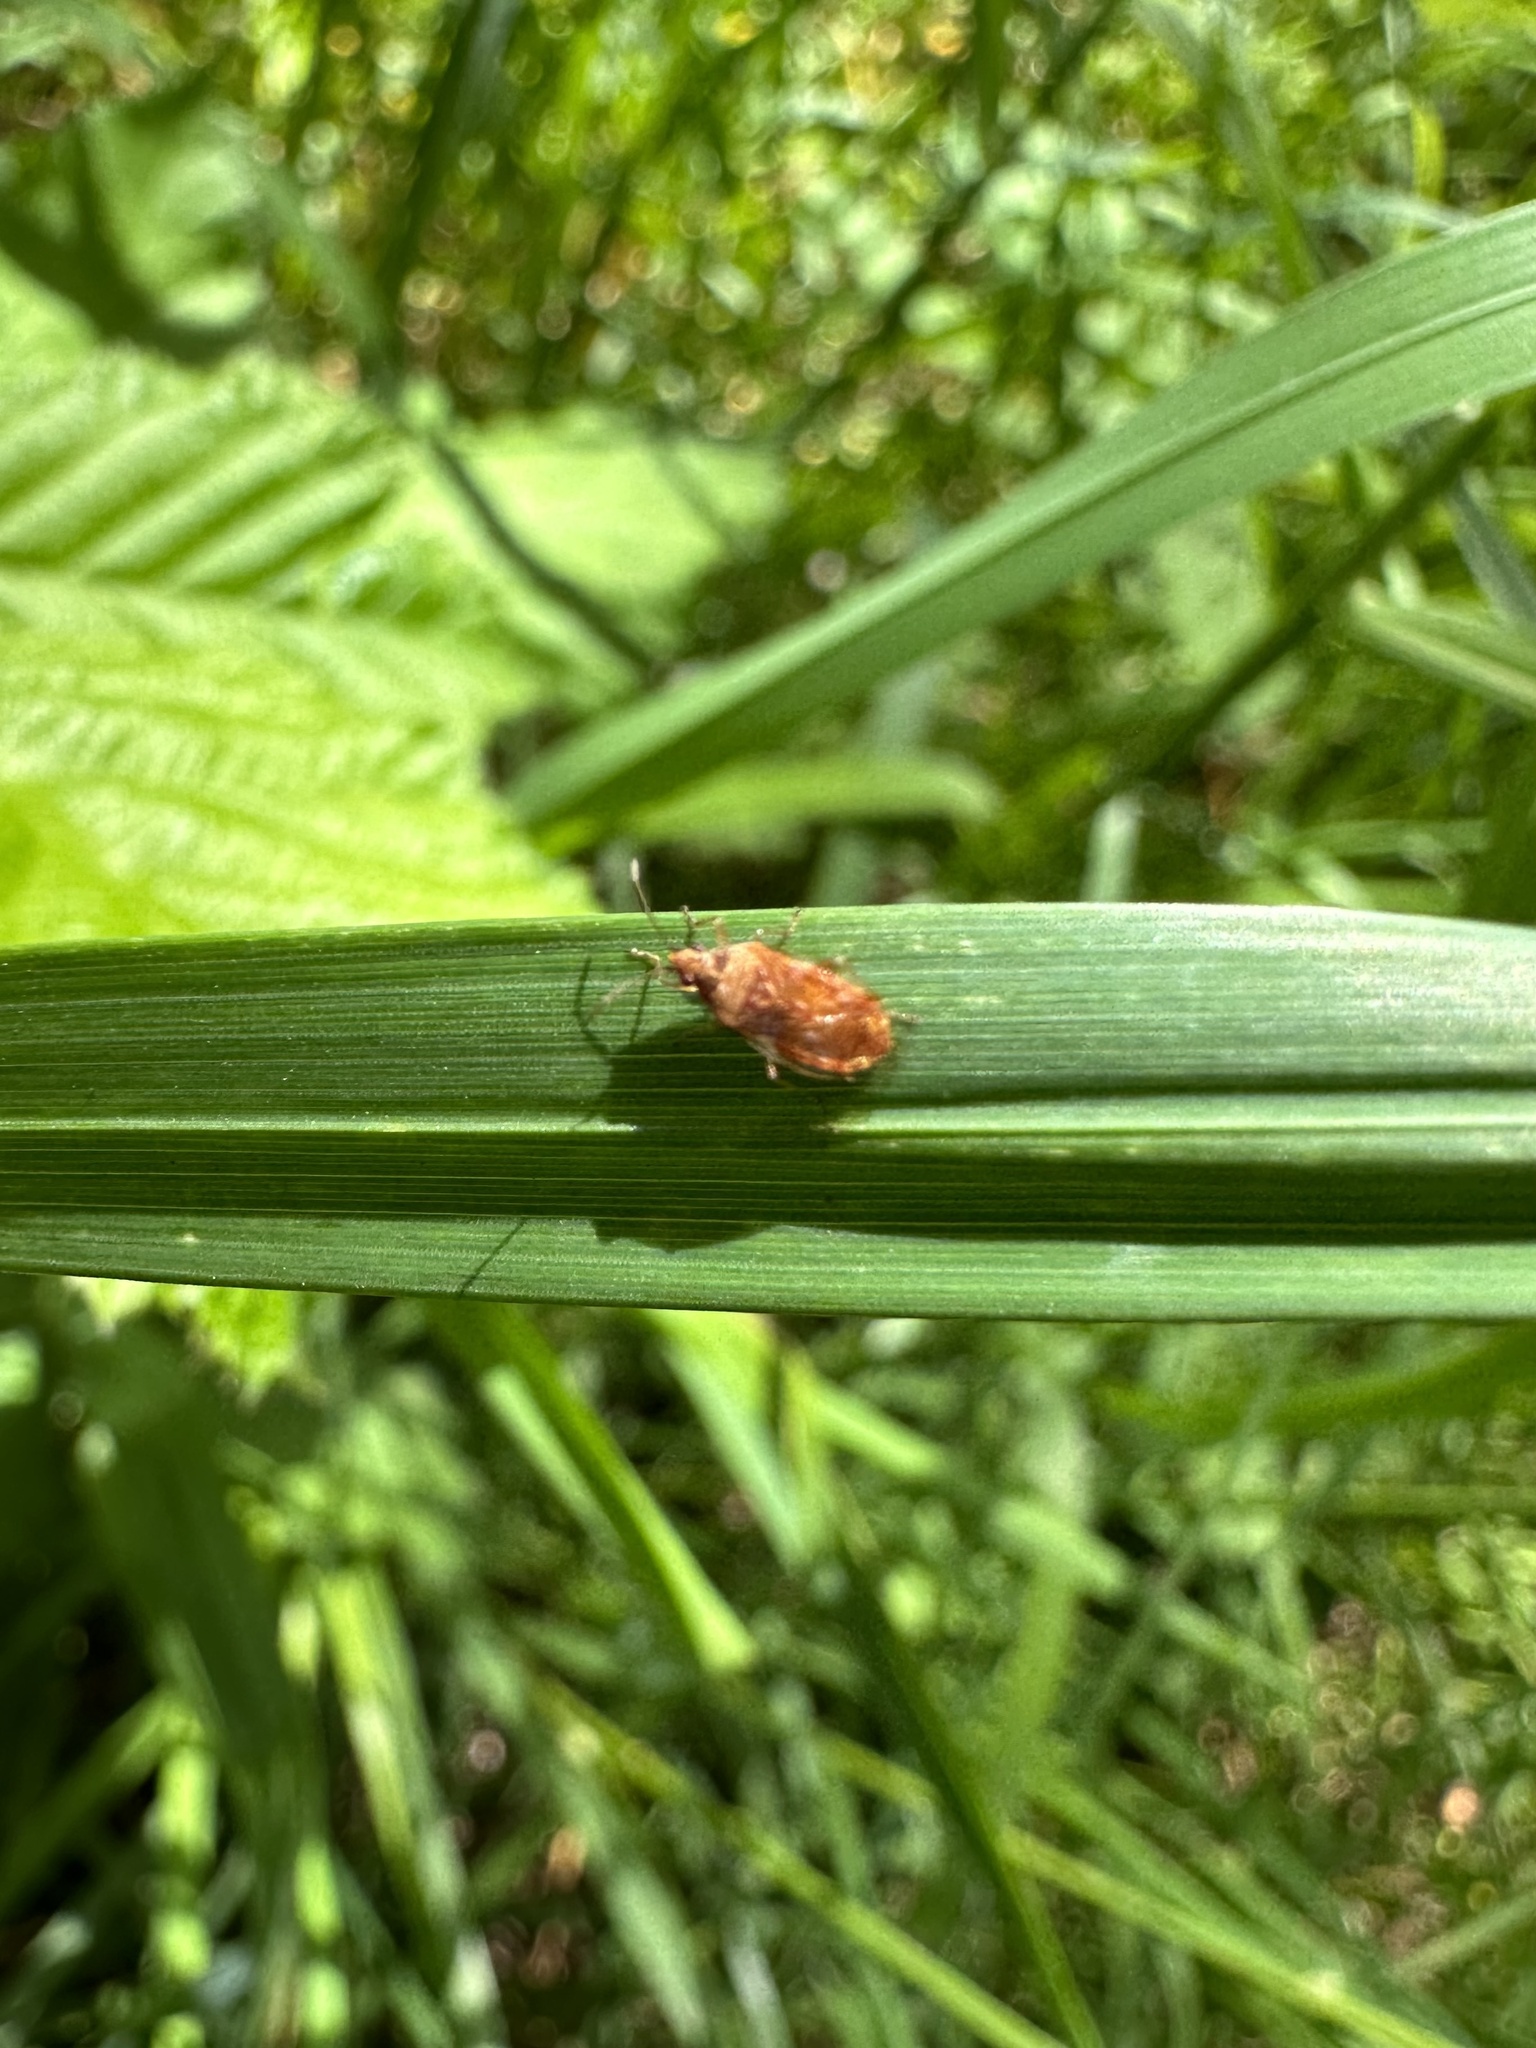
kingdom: Animalia
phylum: Arthropoda
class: Insecta
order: Hemiptera
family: Lygaeidae
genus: Syzygitis
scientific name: Syzygitis poecilus
